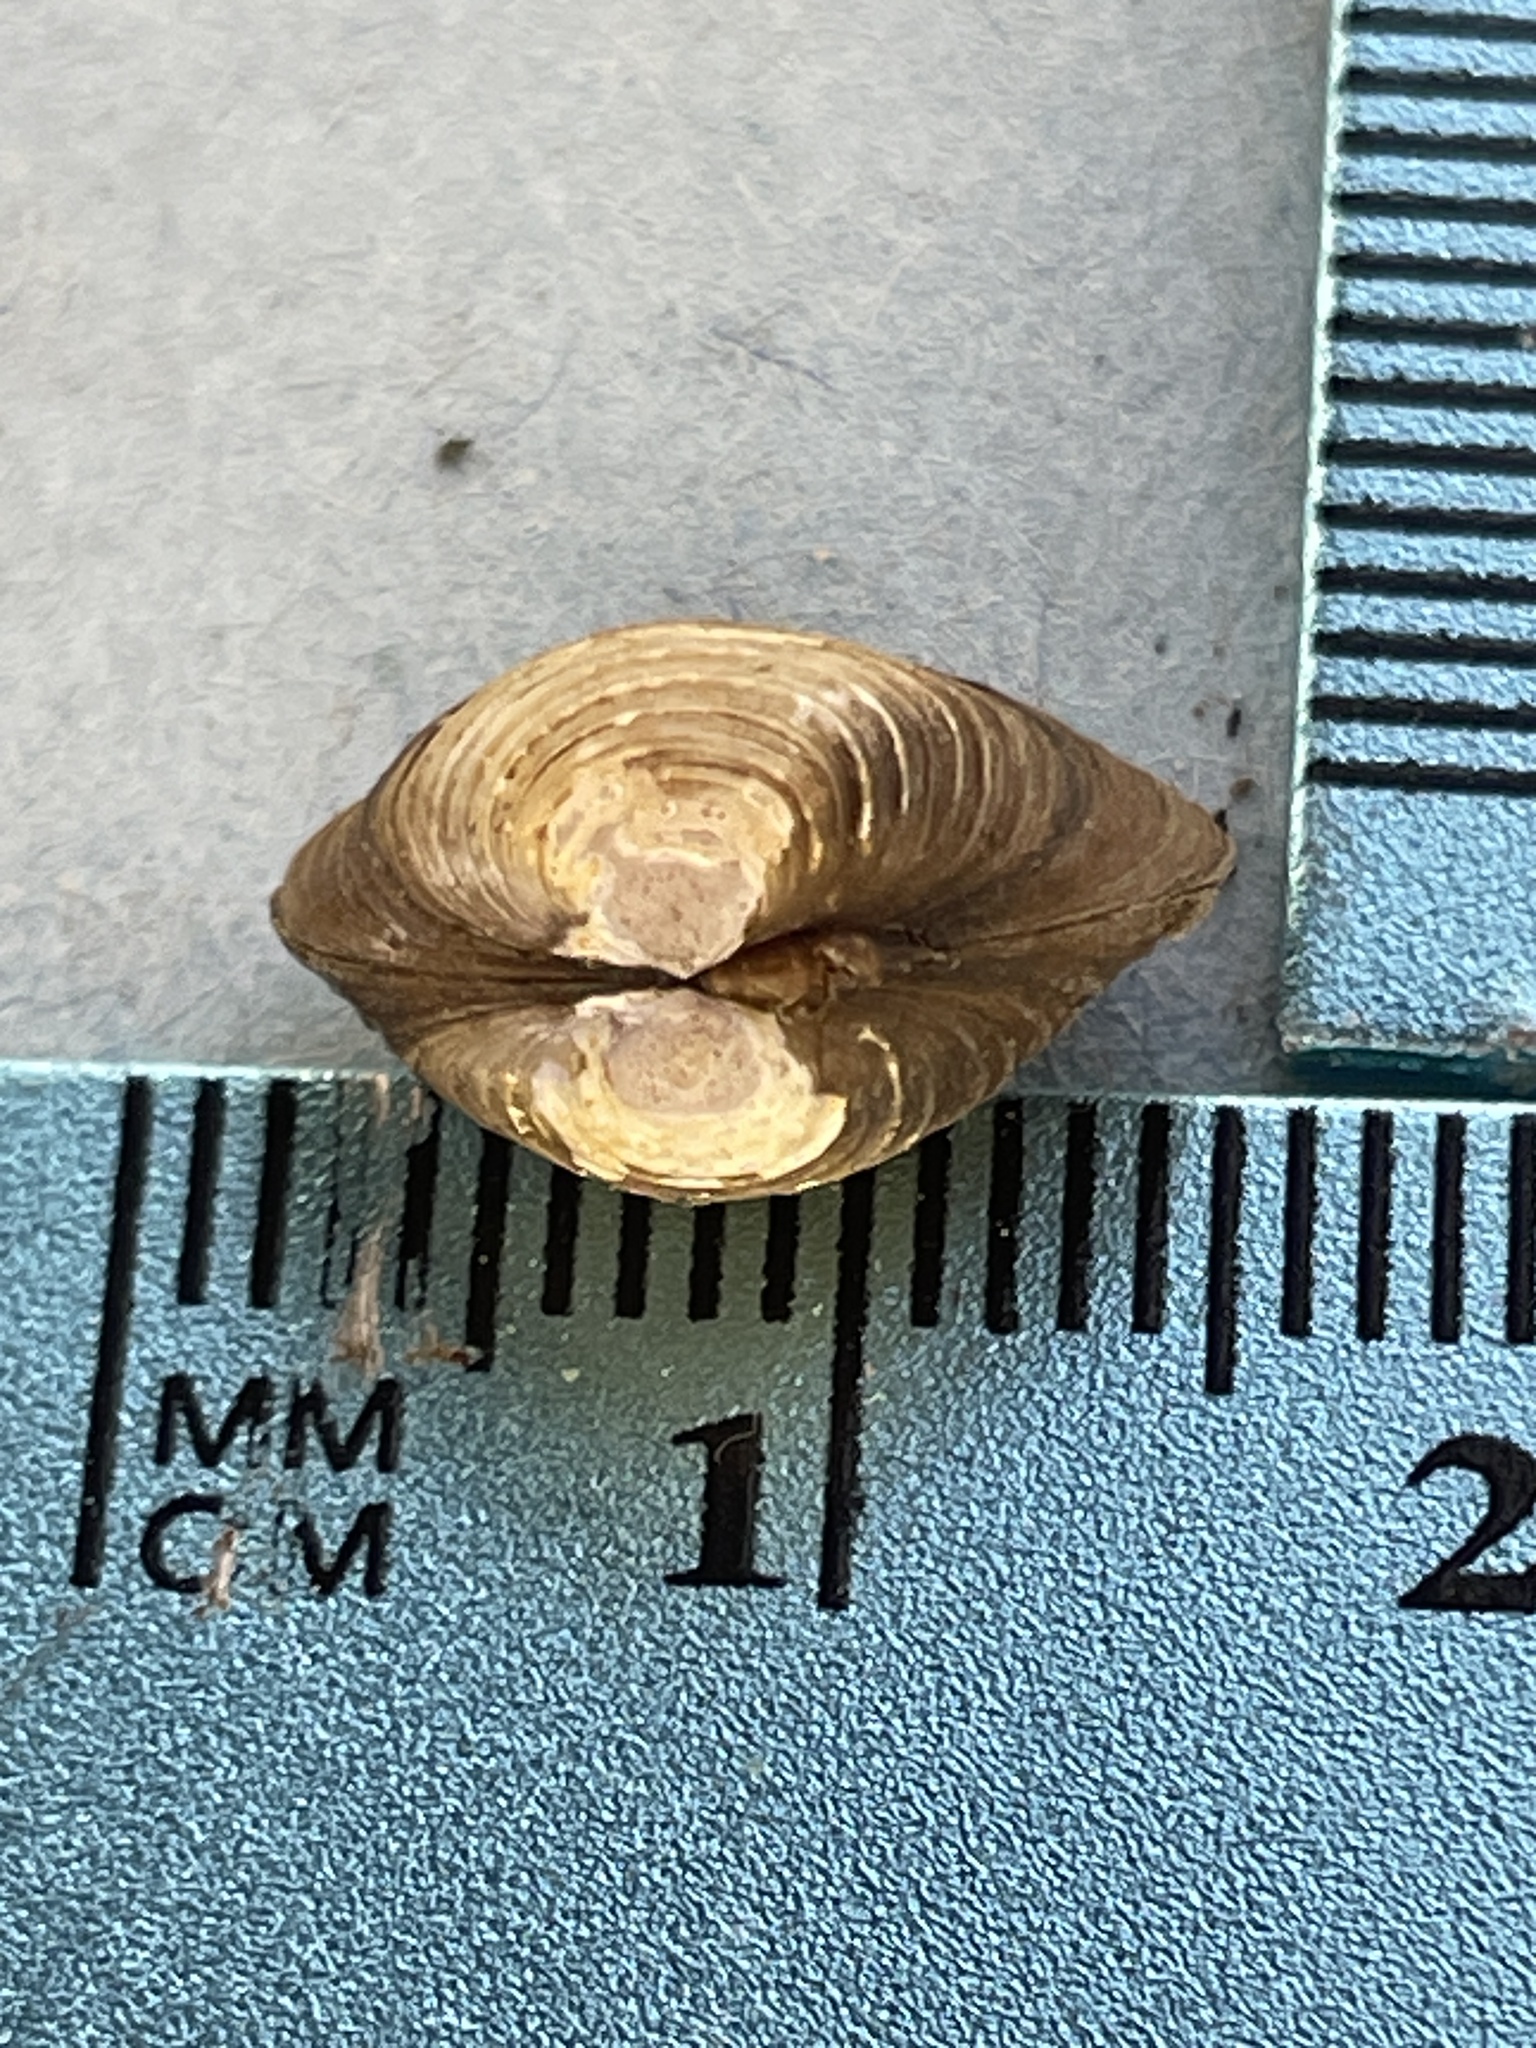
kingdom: Animalia
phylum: Mollusca
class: Bivalvia
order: Venerida
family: Cyrenidae
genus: Corbicula
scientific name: Corbicula fluminea
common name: Asian clam
